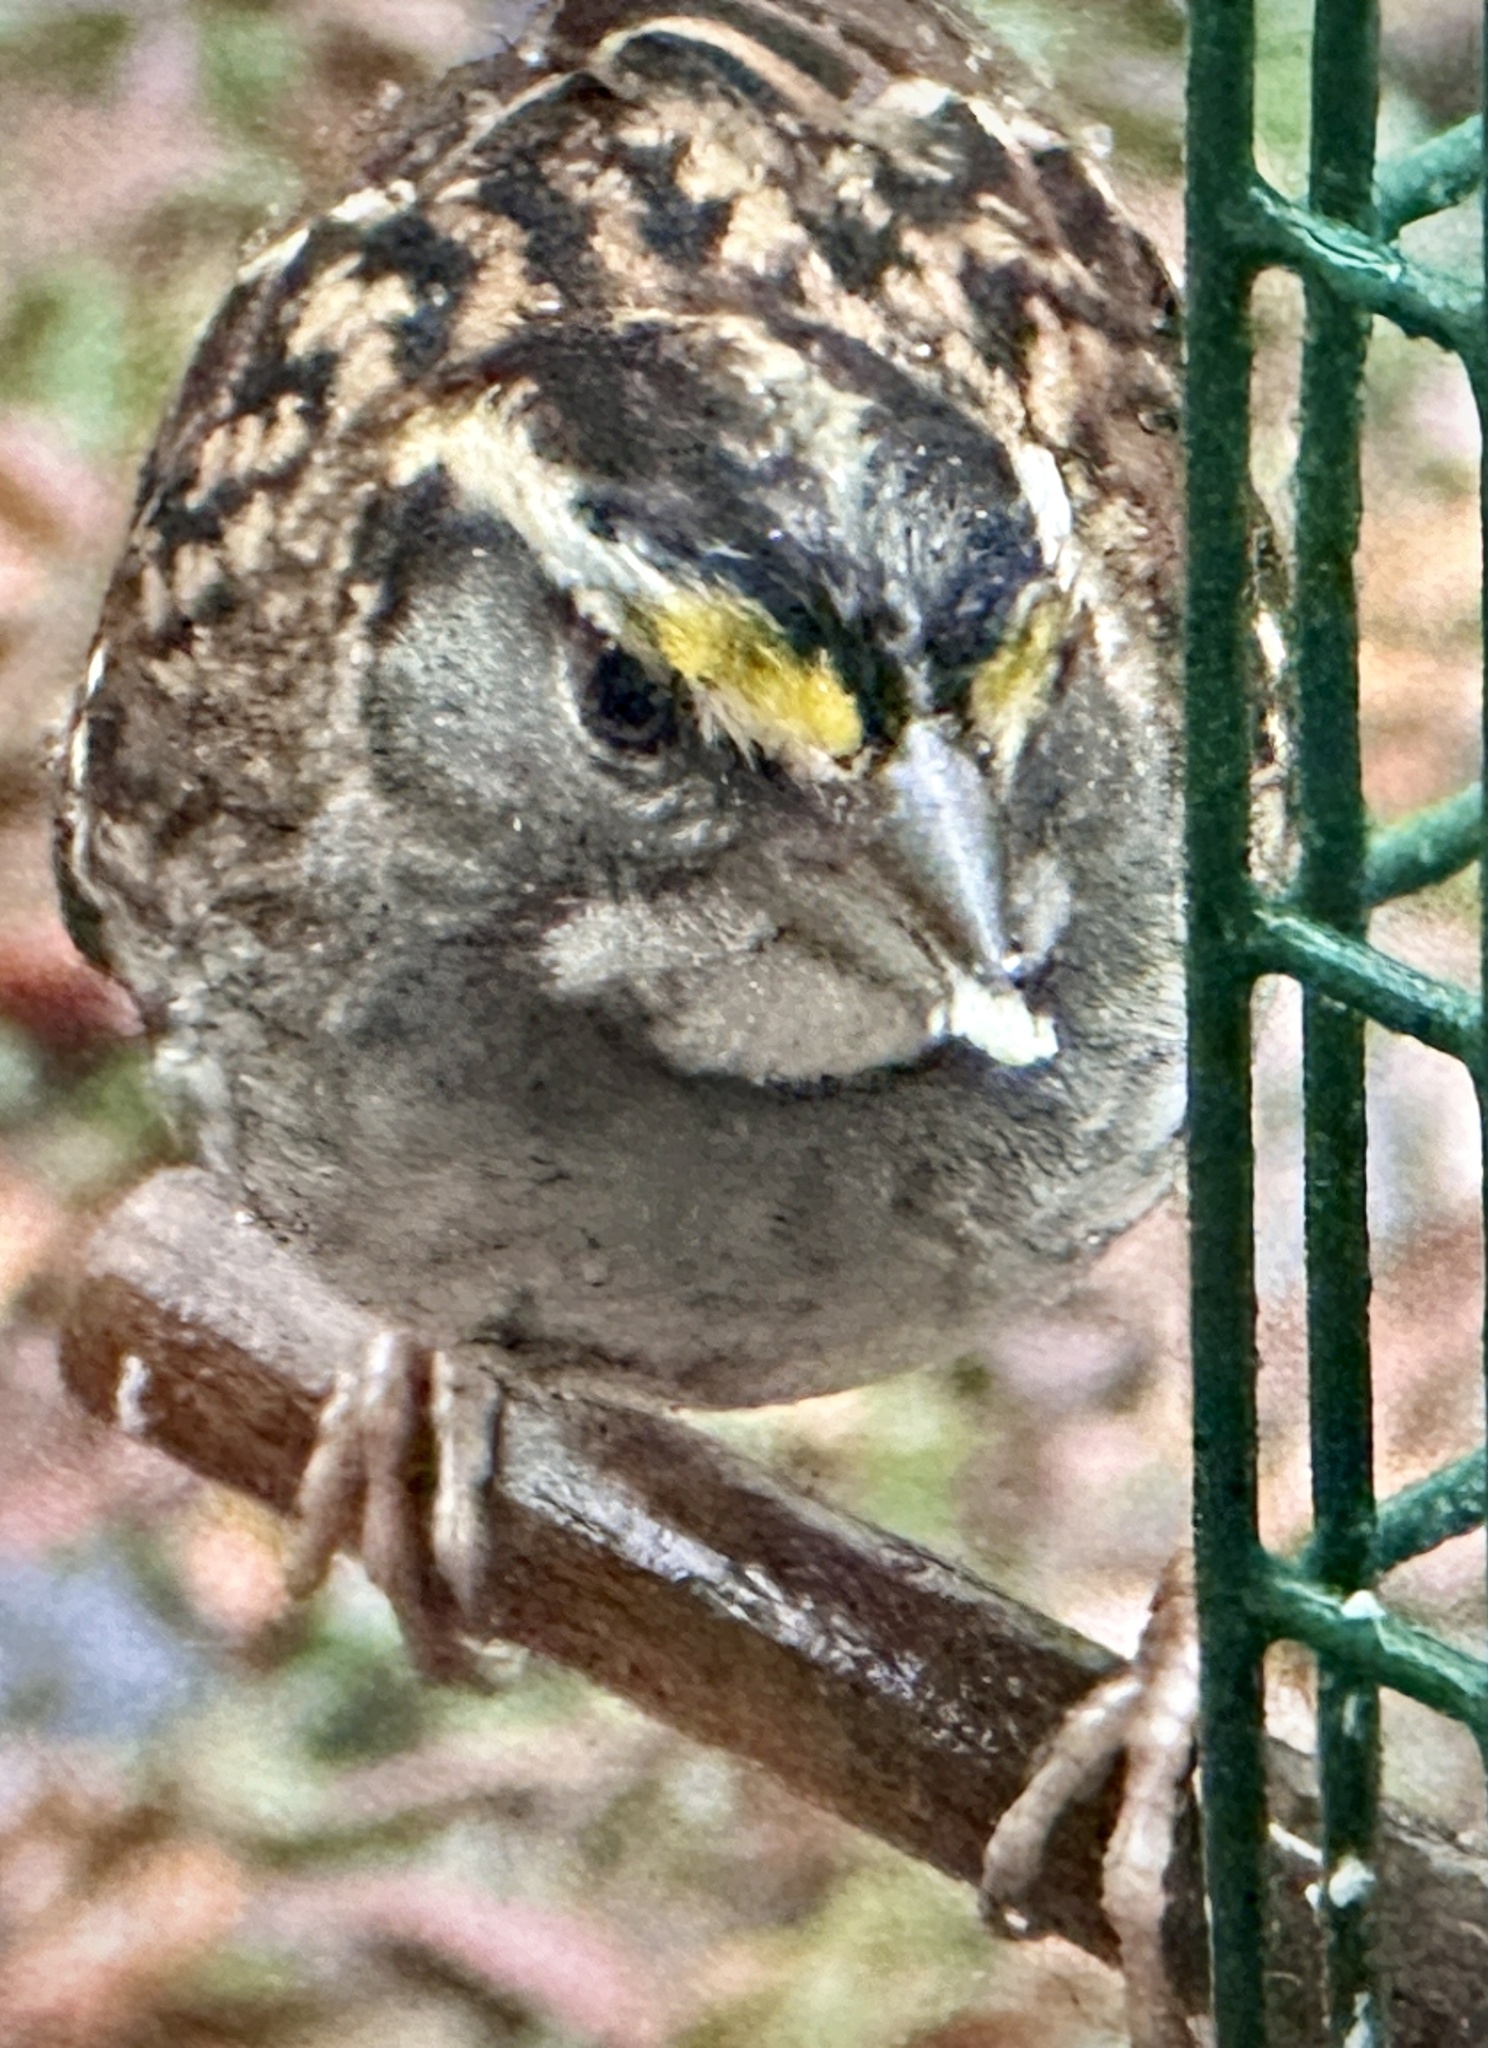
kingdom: Animalia
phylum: Chordata
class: Aves
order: Passeriformes
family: Passerellidae
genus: Zonotrichia
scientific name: Zonotrichia albicollis
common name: White-throated sparrow
